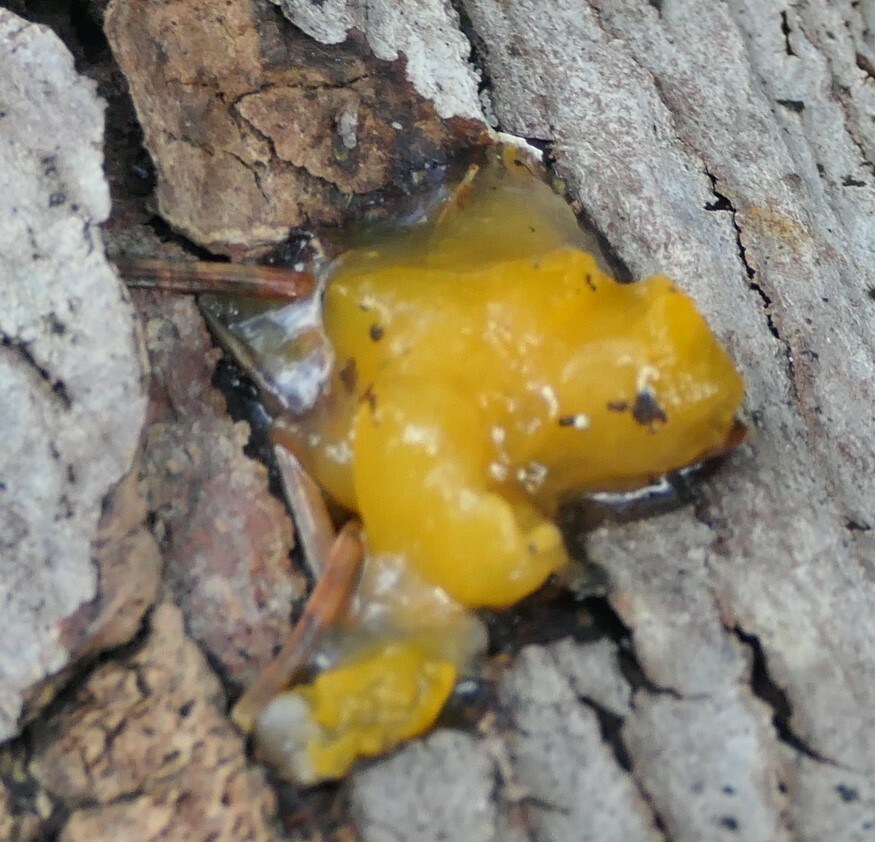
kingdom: Fungi
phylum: Basidiomycota
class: Dacrymycetes
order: Dacrymycetales
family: Dacrymycetaceae
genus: Dacrymyces
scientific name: Dacrymyces chrysospermus
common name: Orange jelly spot
